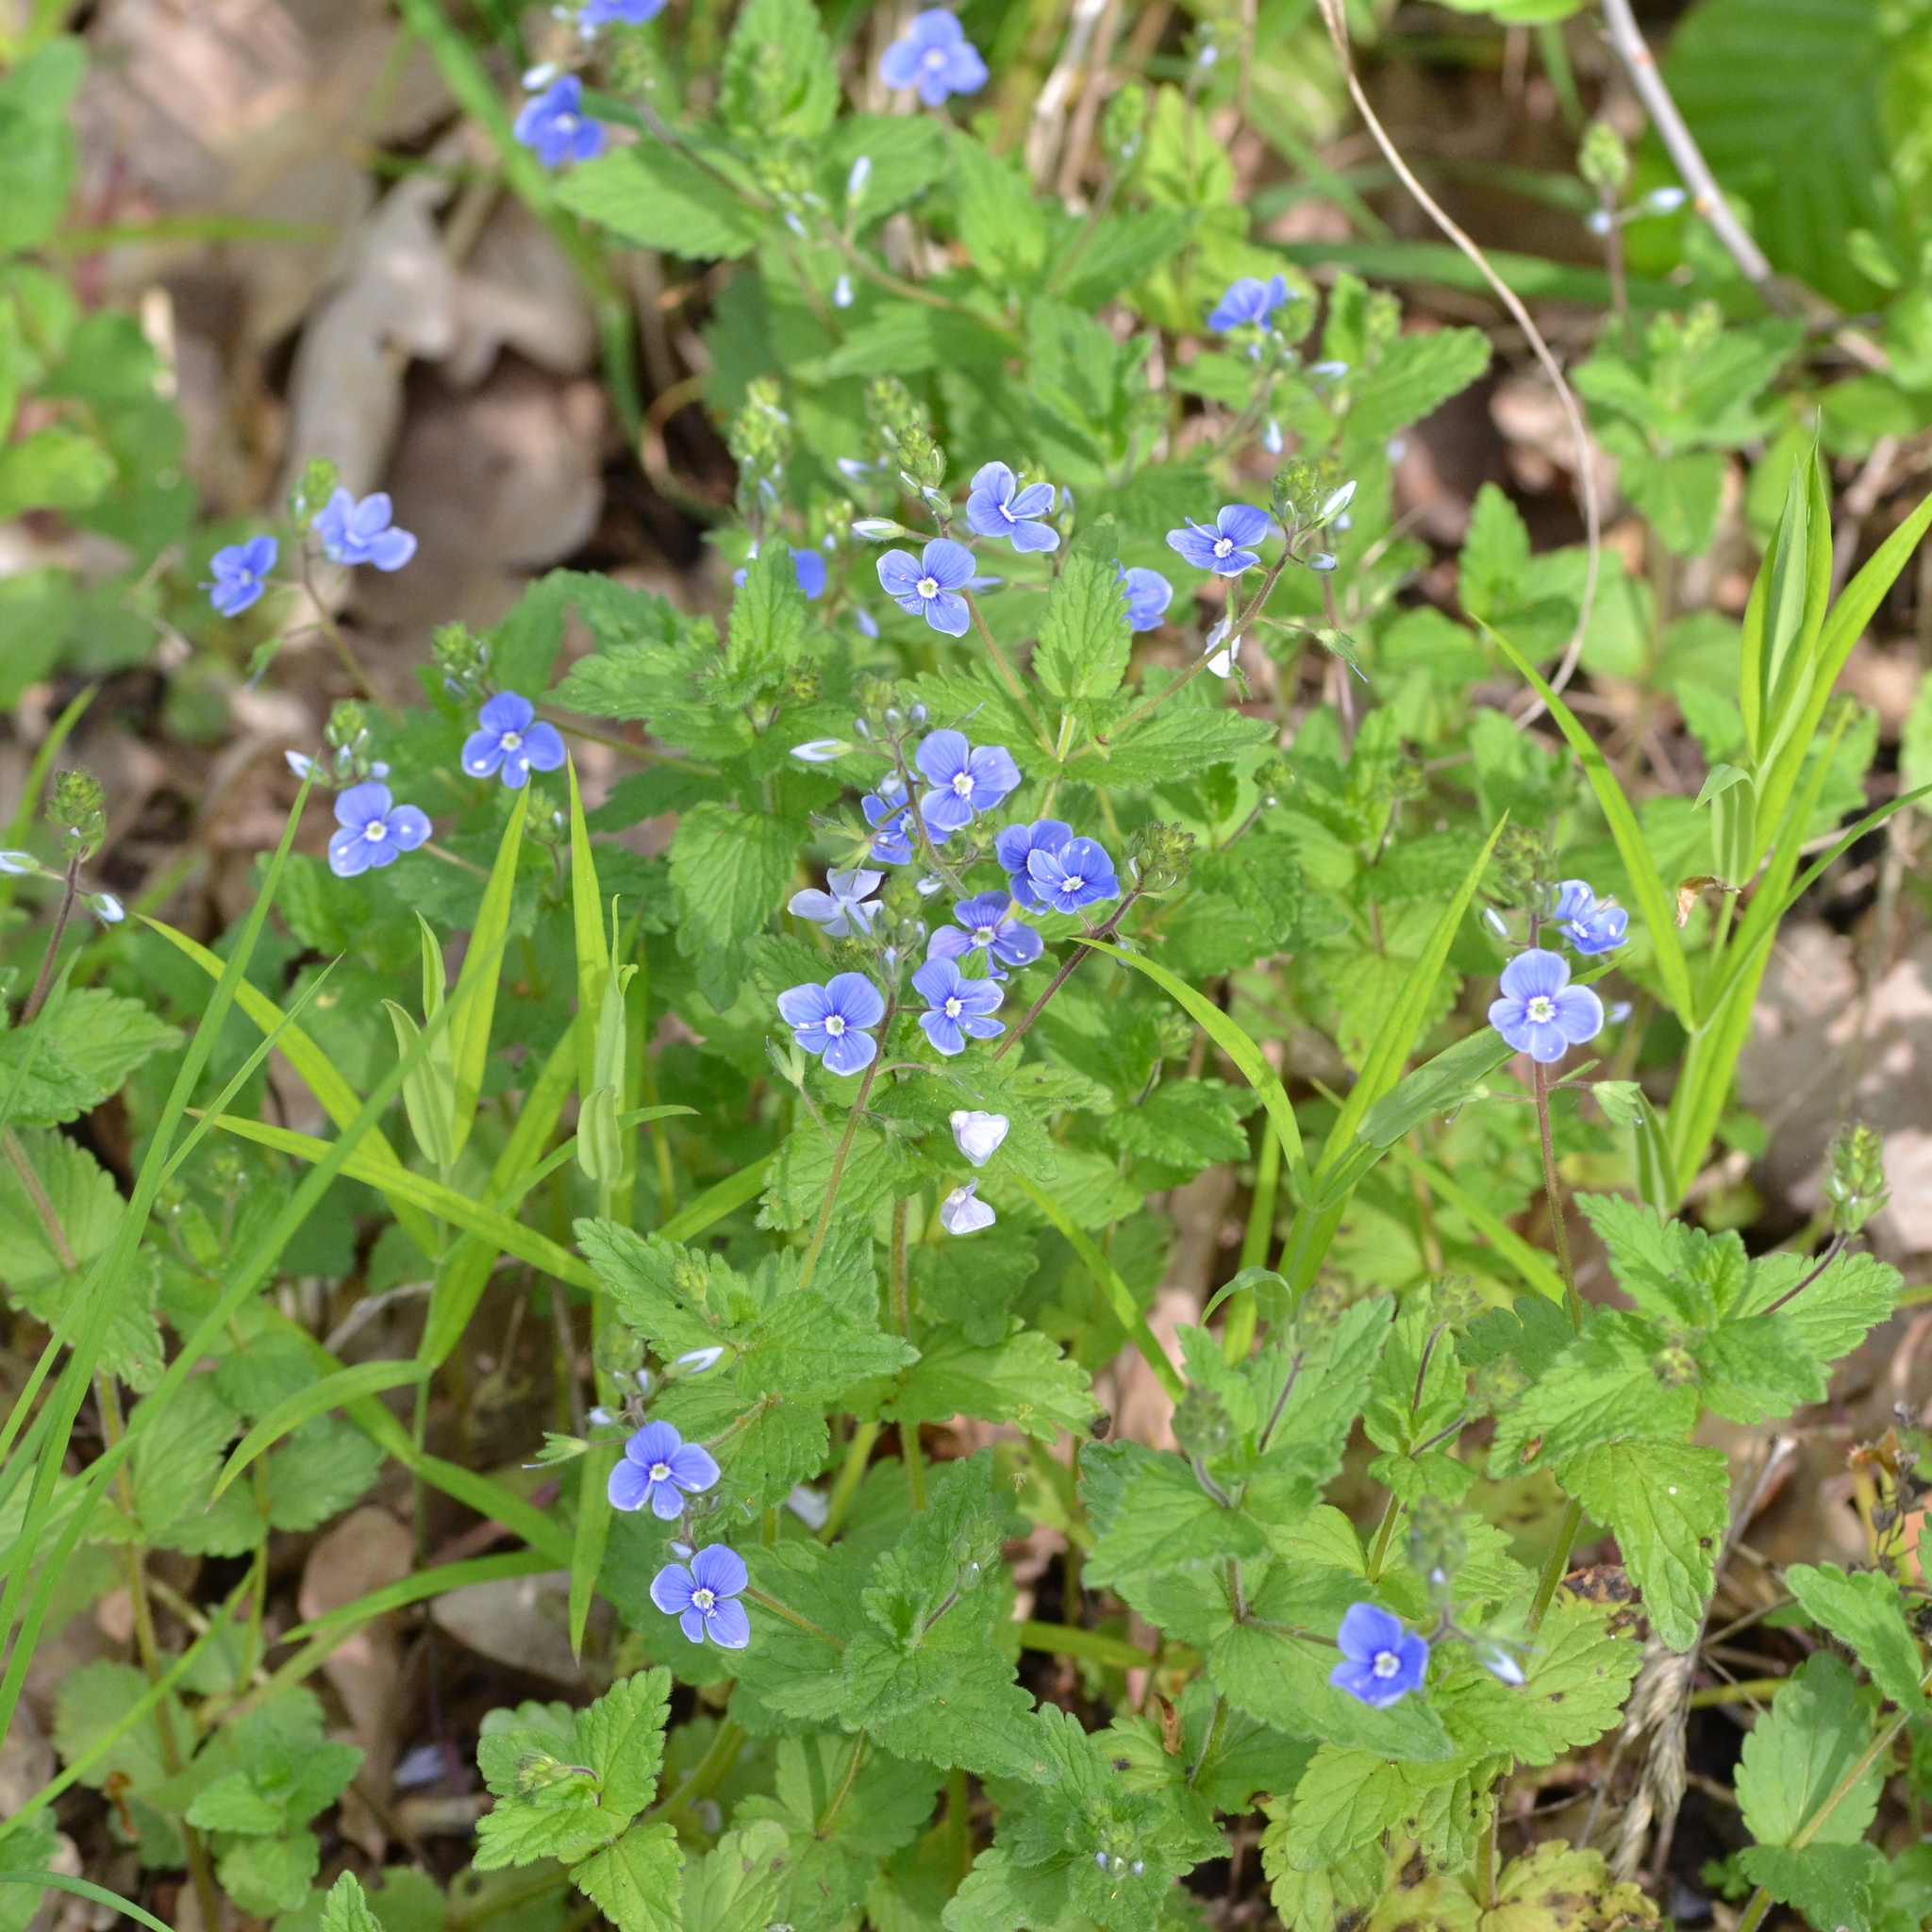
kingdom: Plantae
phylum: Tracheophyta
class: Magnoliopsida
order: Lamiales
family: Plantaginaceae
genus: Veronica
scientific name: Veronica chamaedrys
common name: Germander speedwell
